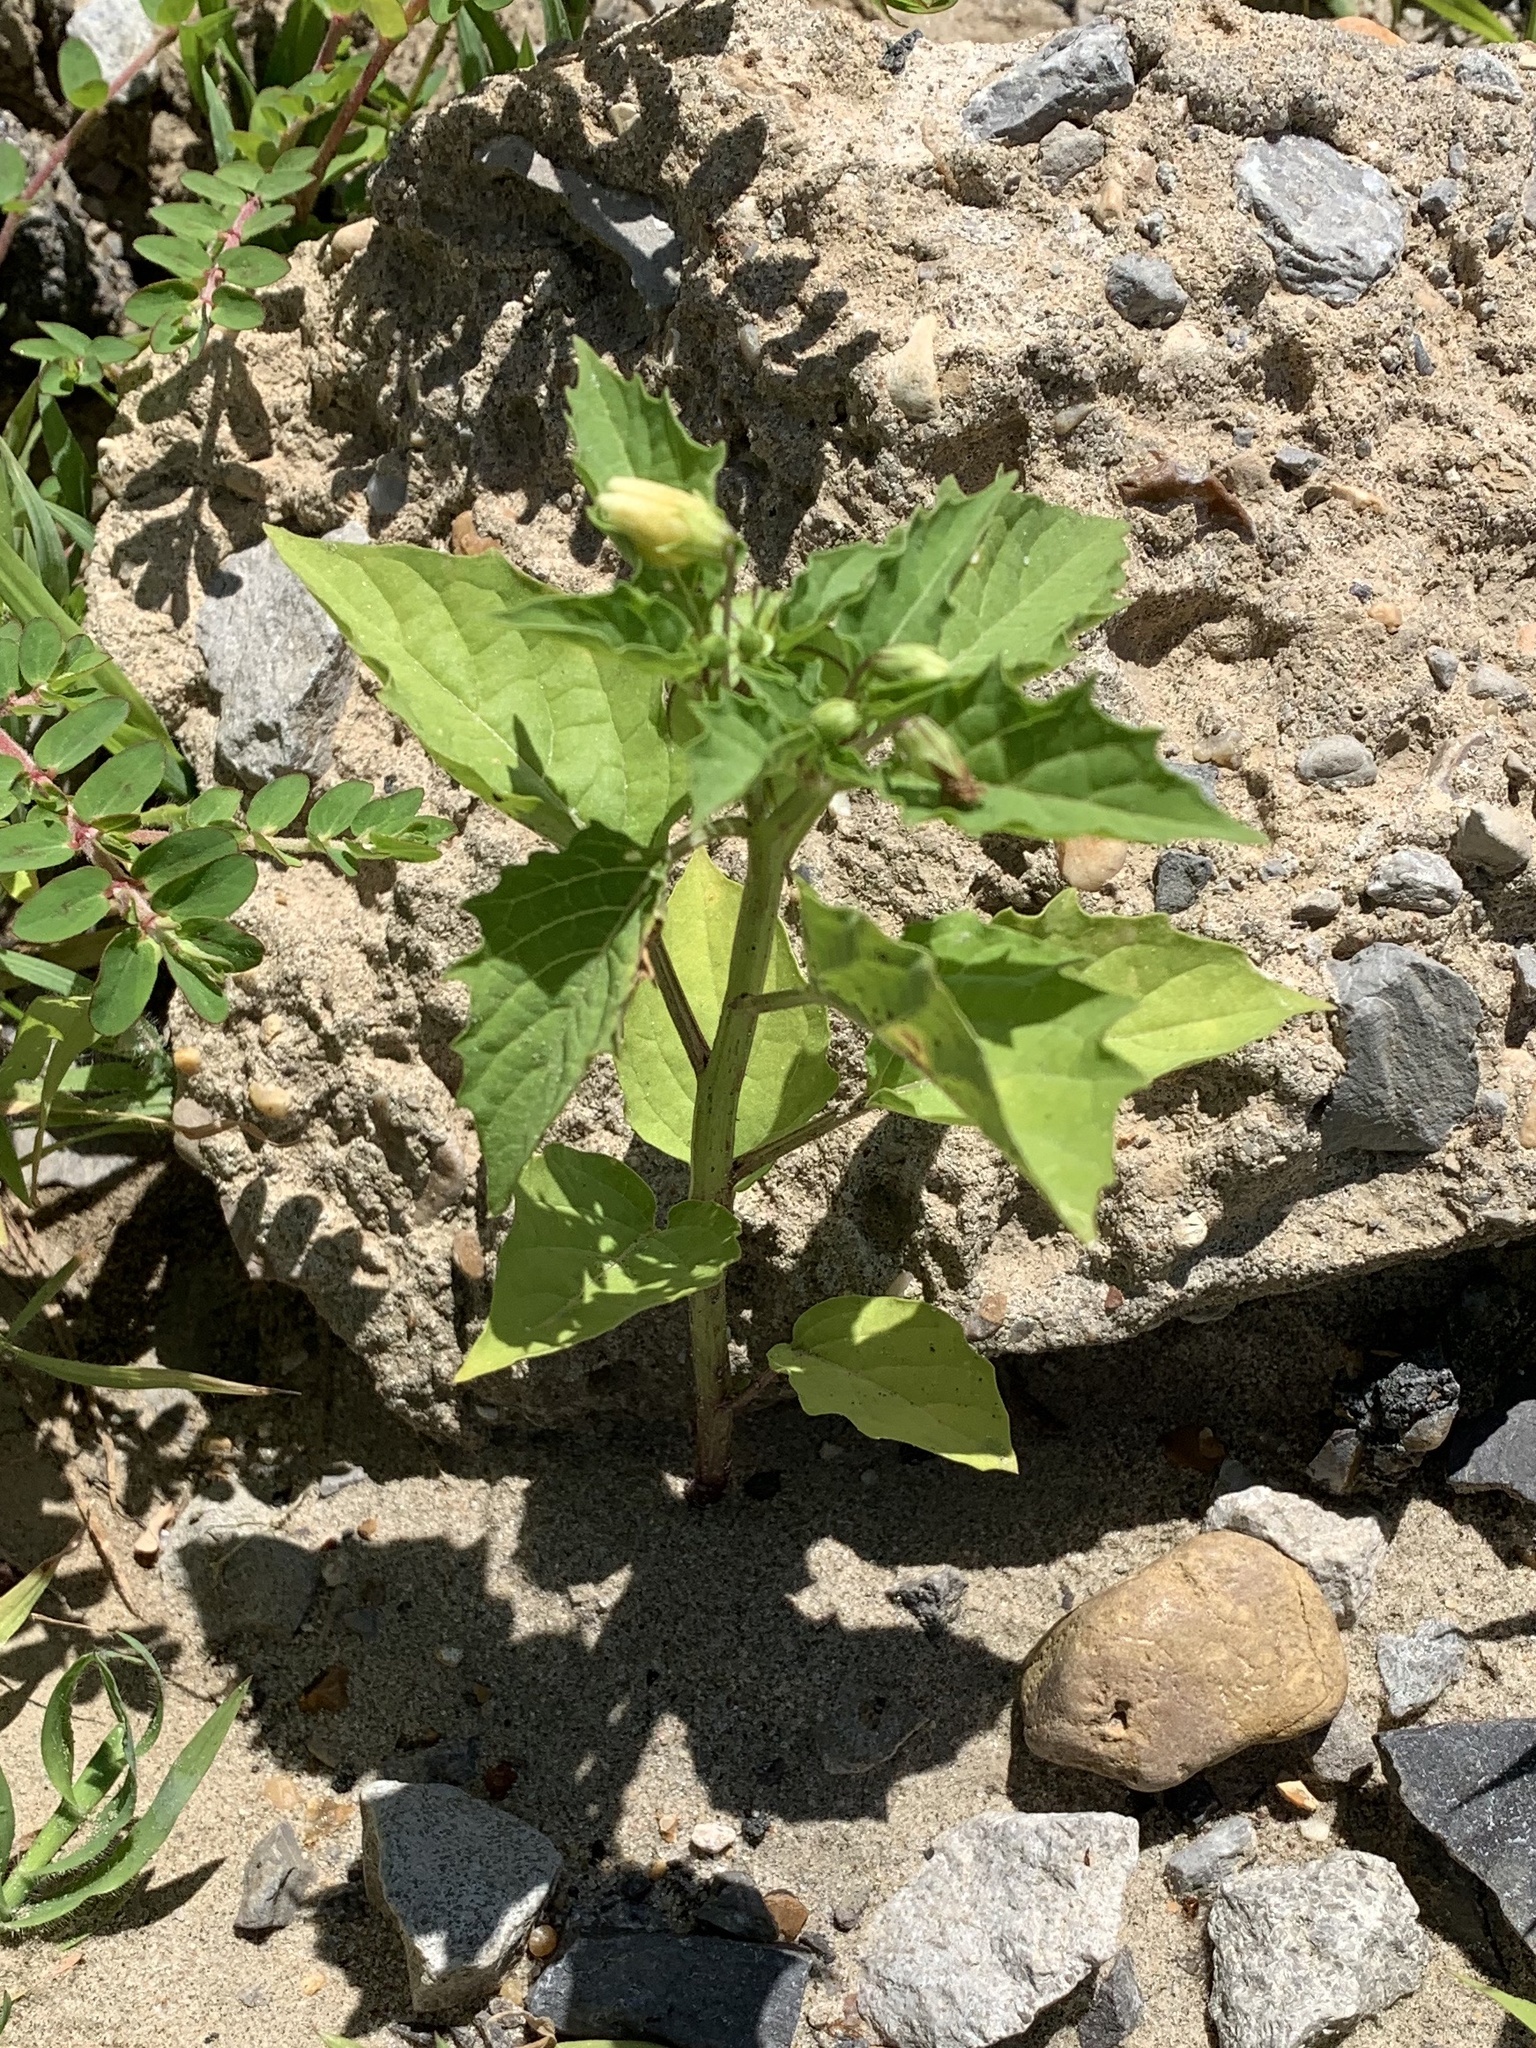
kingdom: Plantae
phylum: Tracheophyta
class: Magnoliopsida
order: Solanales
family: Solanaceae
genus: Physalis
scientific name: Physalis angulata
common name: Angular winter-cherry
